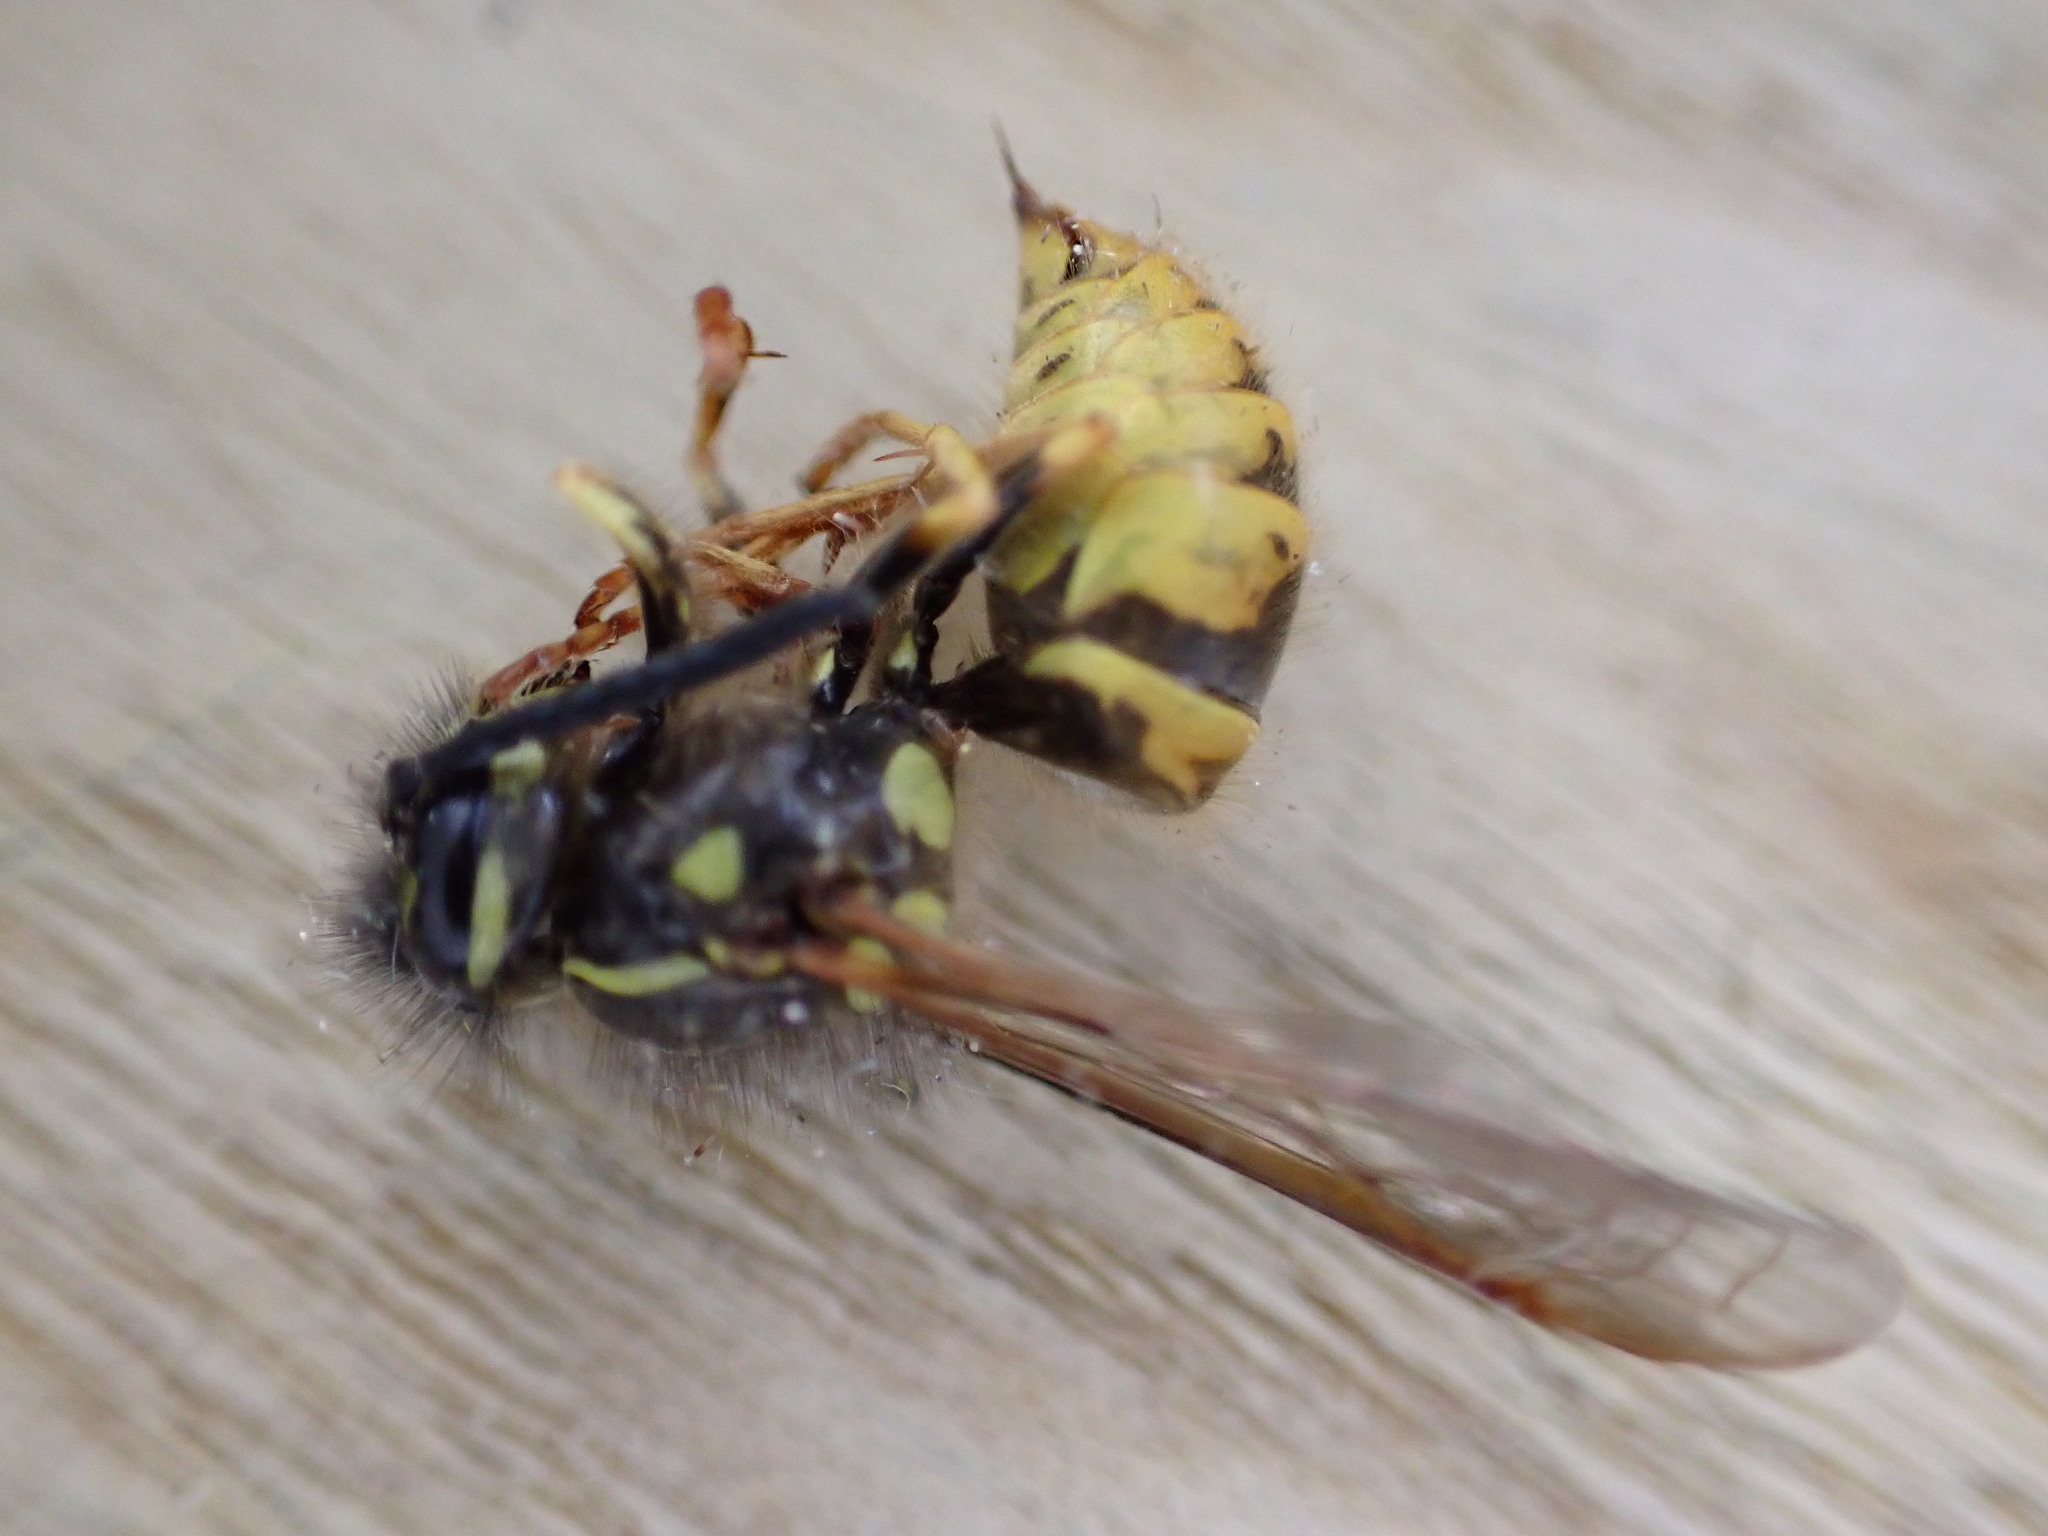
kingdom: Animalia
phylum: Arthropoda
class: Insecta
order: Hymenoptera
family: Vespidae
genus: Vespula
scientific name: Vespula vulgaris
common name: Common wasp
